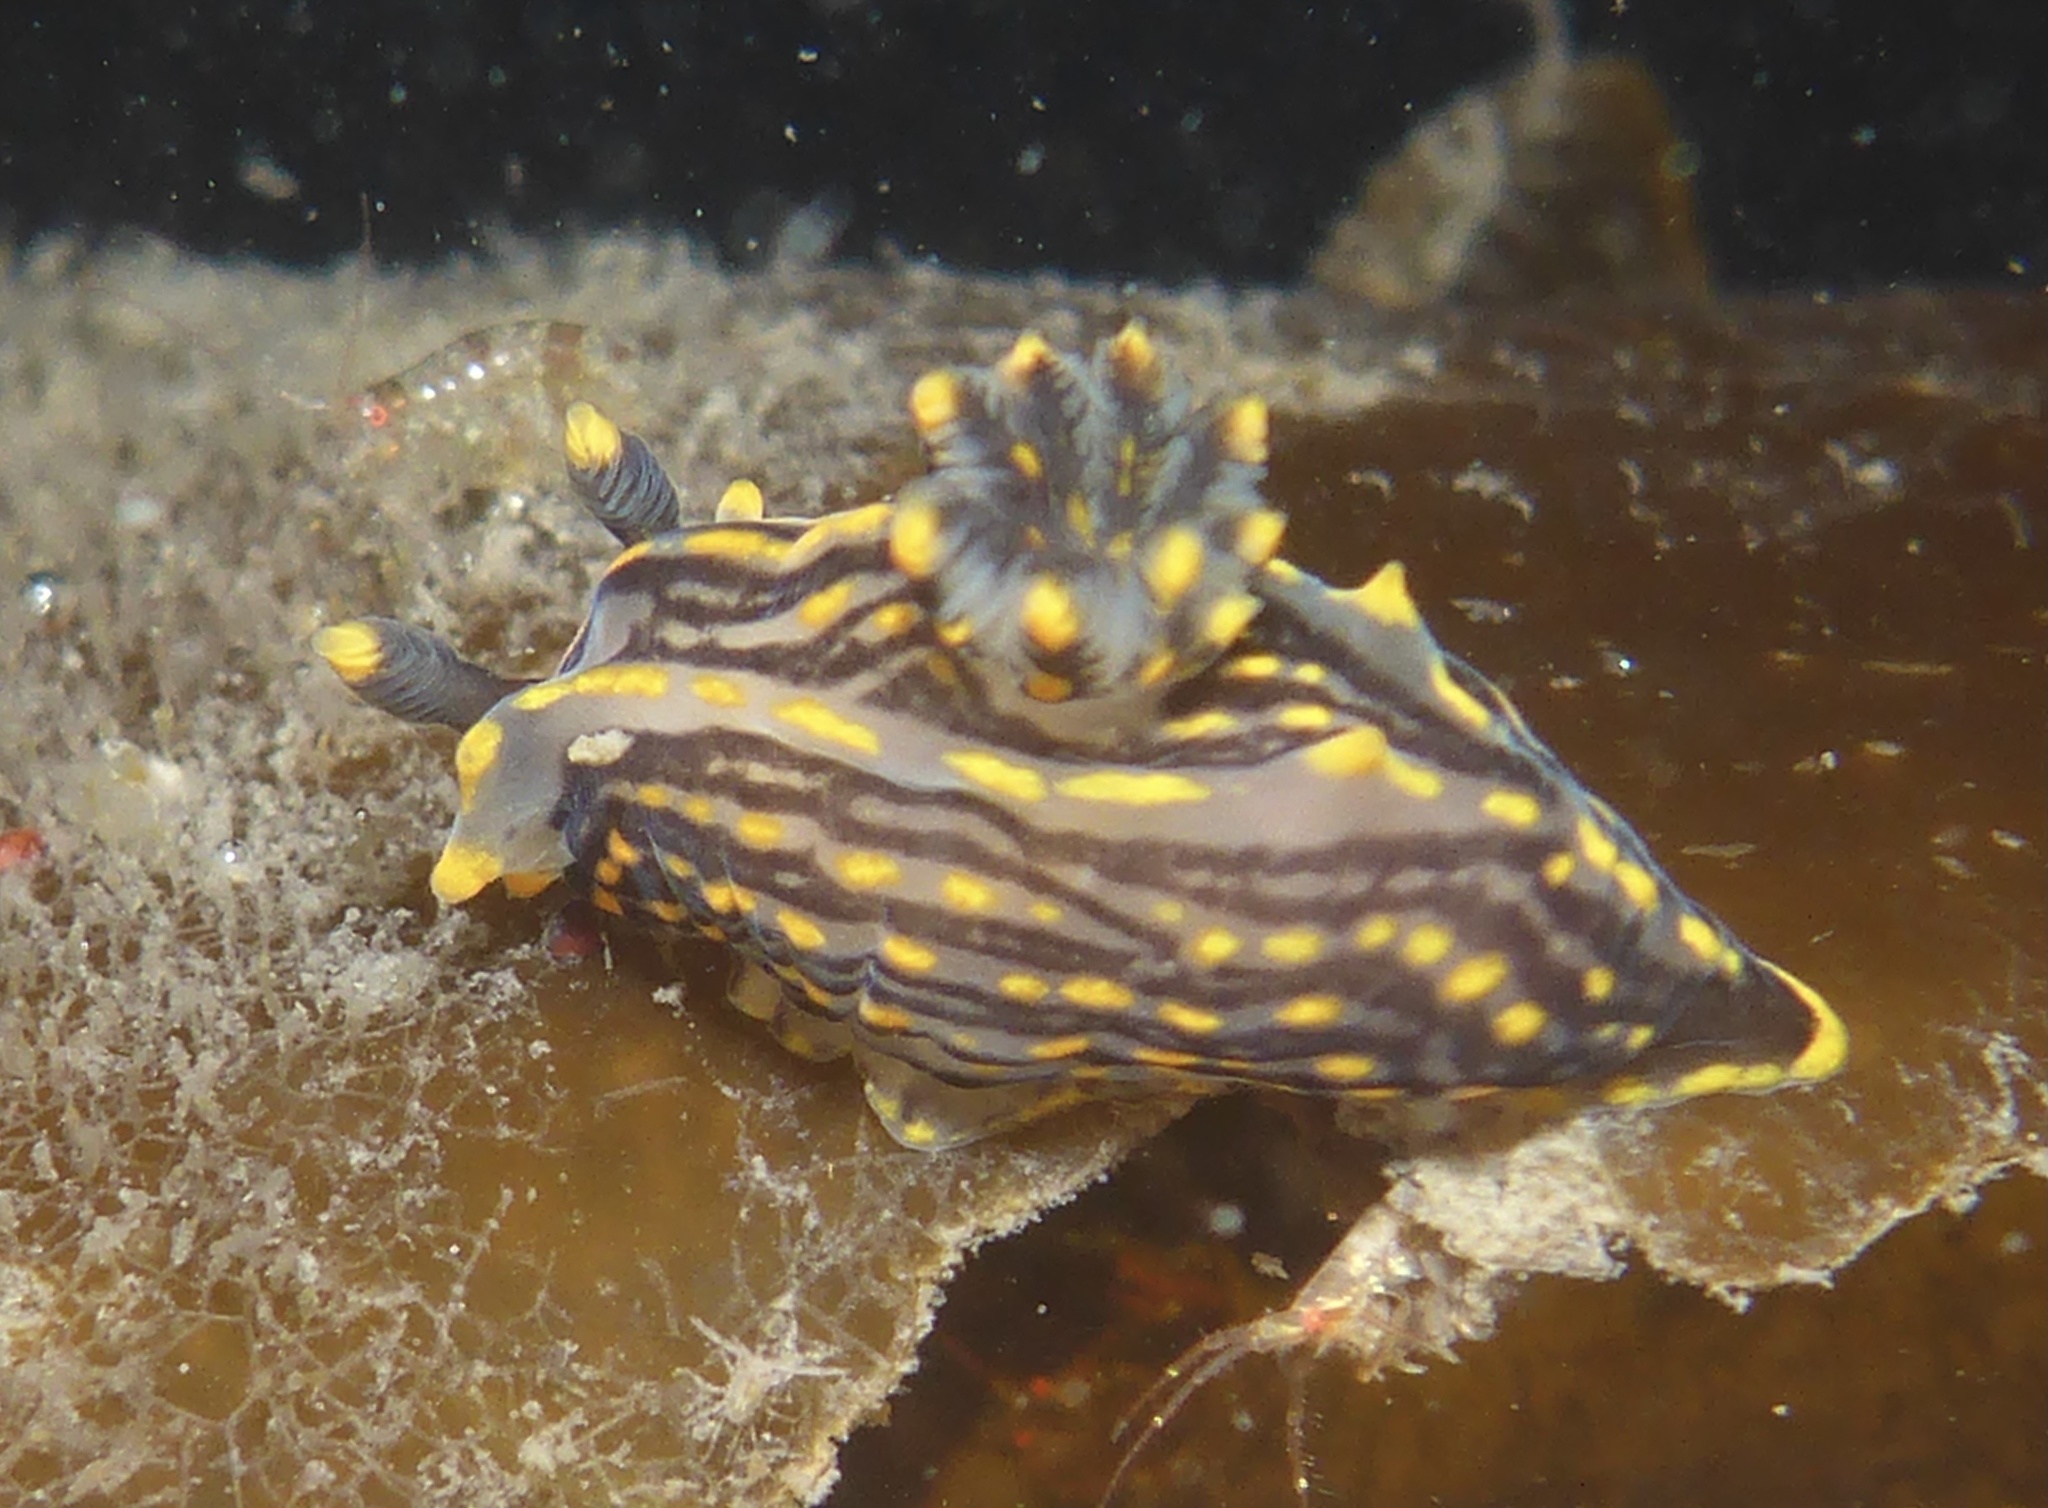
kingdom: Animalia
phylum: Mollusca
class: Gastropoda
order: Nudibranchia
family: Polyceridae
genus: Polycera
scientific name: Polycera atra
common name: Orange-spike polycera
